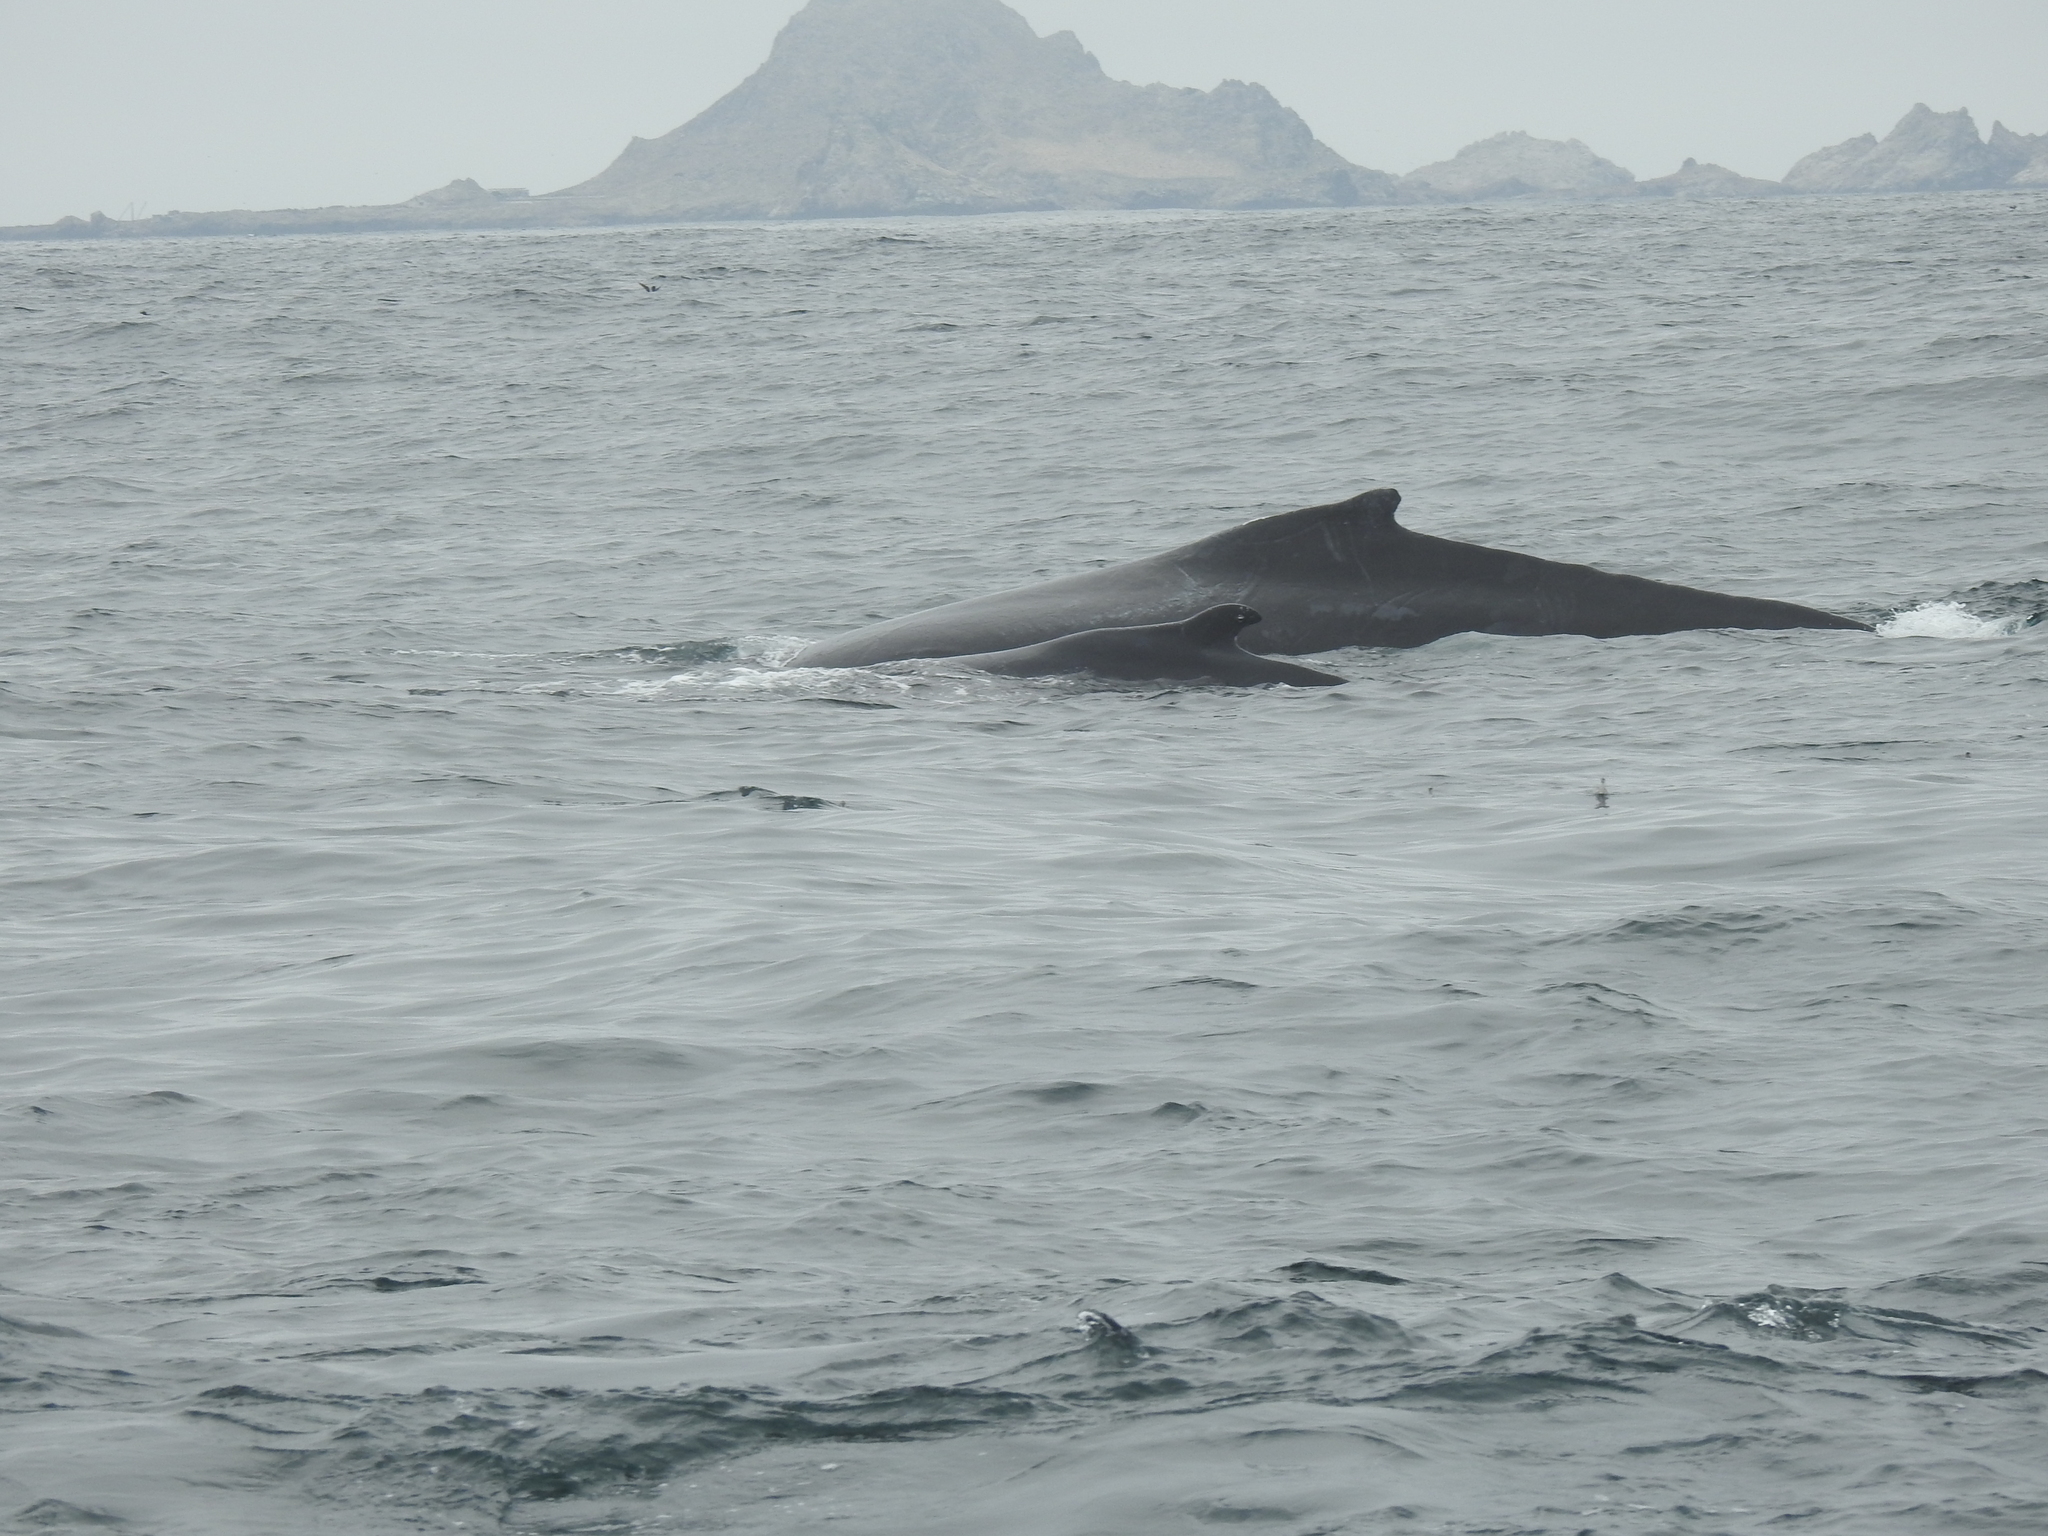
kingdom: Animalia
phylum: Chordata
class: Mammalia
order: Cetacea
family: Balaenopteridae
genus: Megaptera
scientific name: Megaptera novaeangliae
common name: Humpback whale
